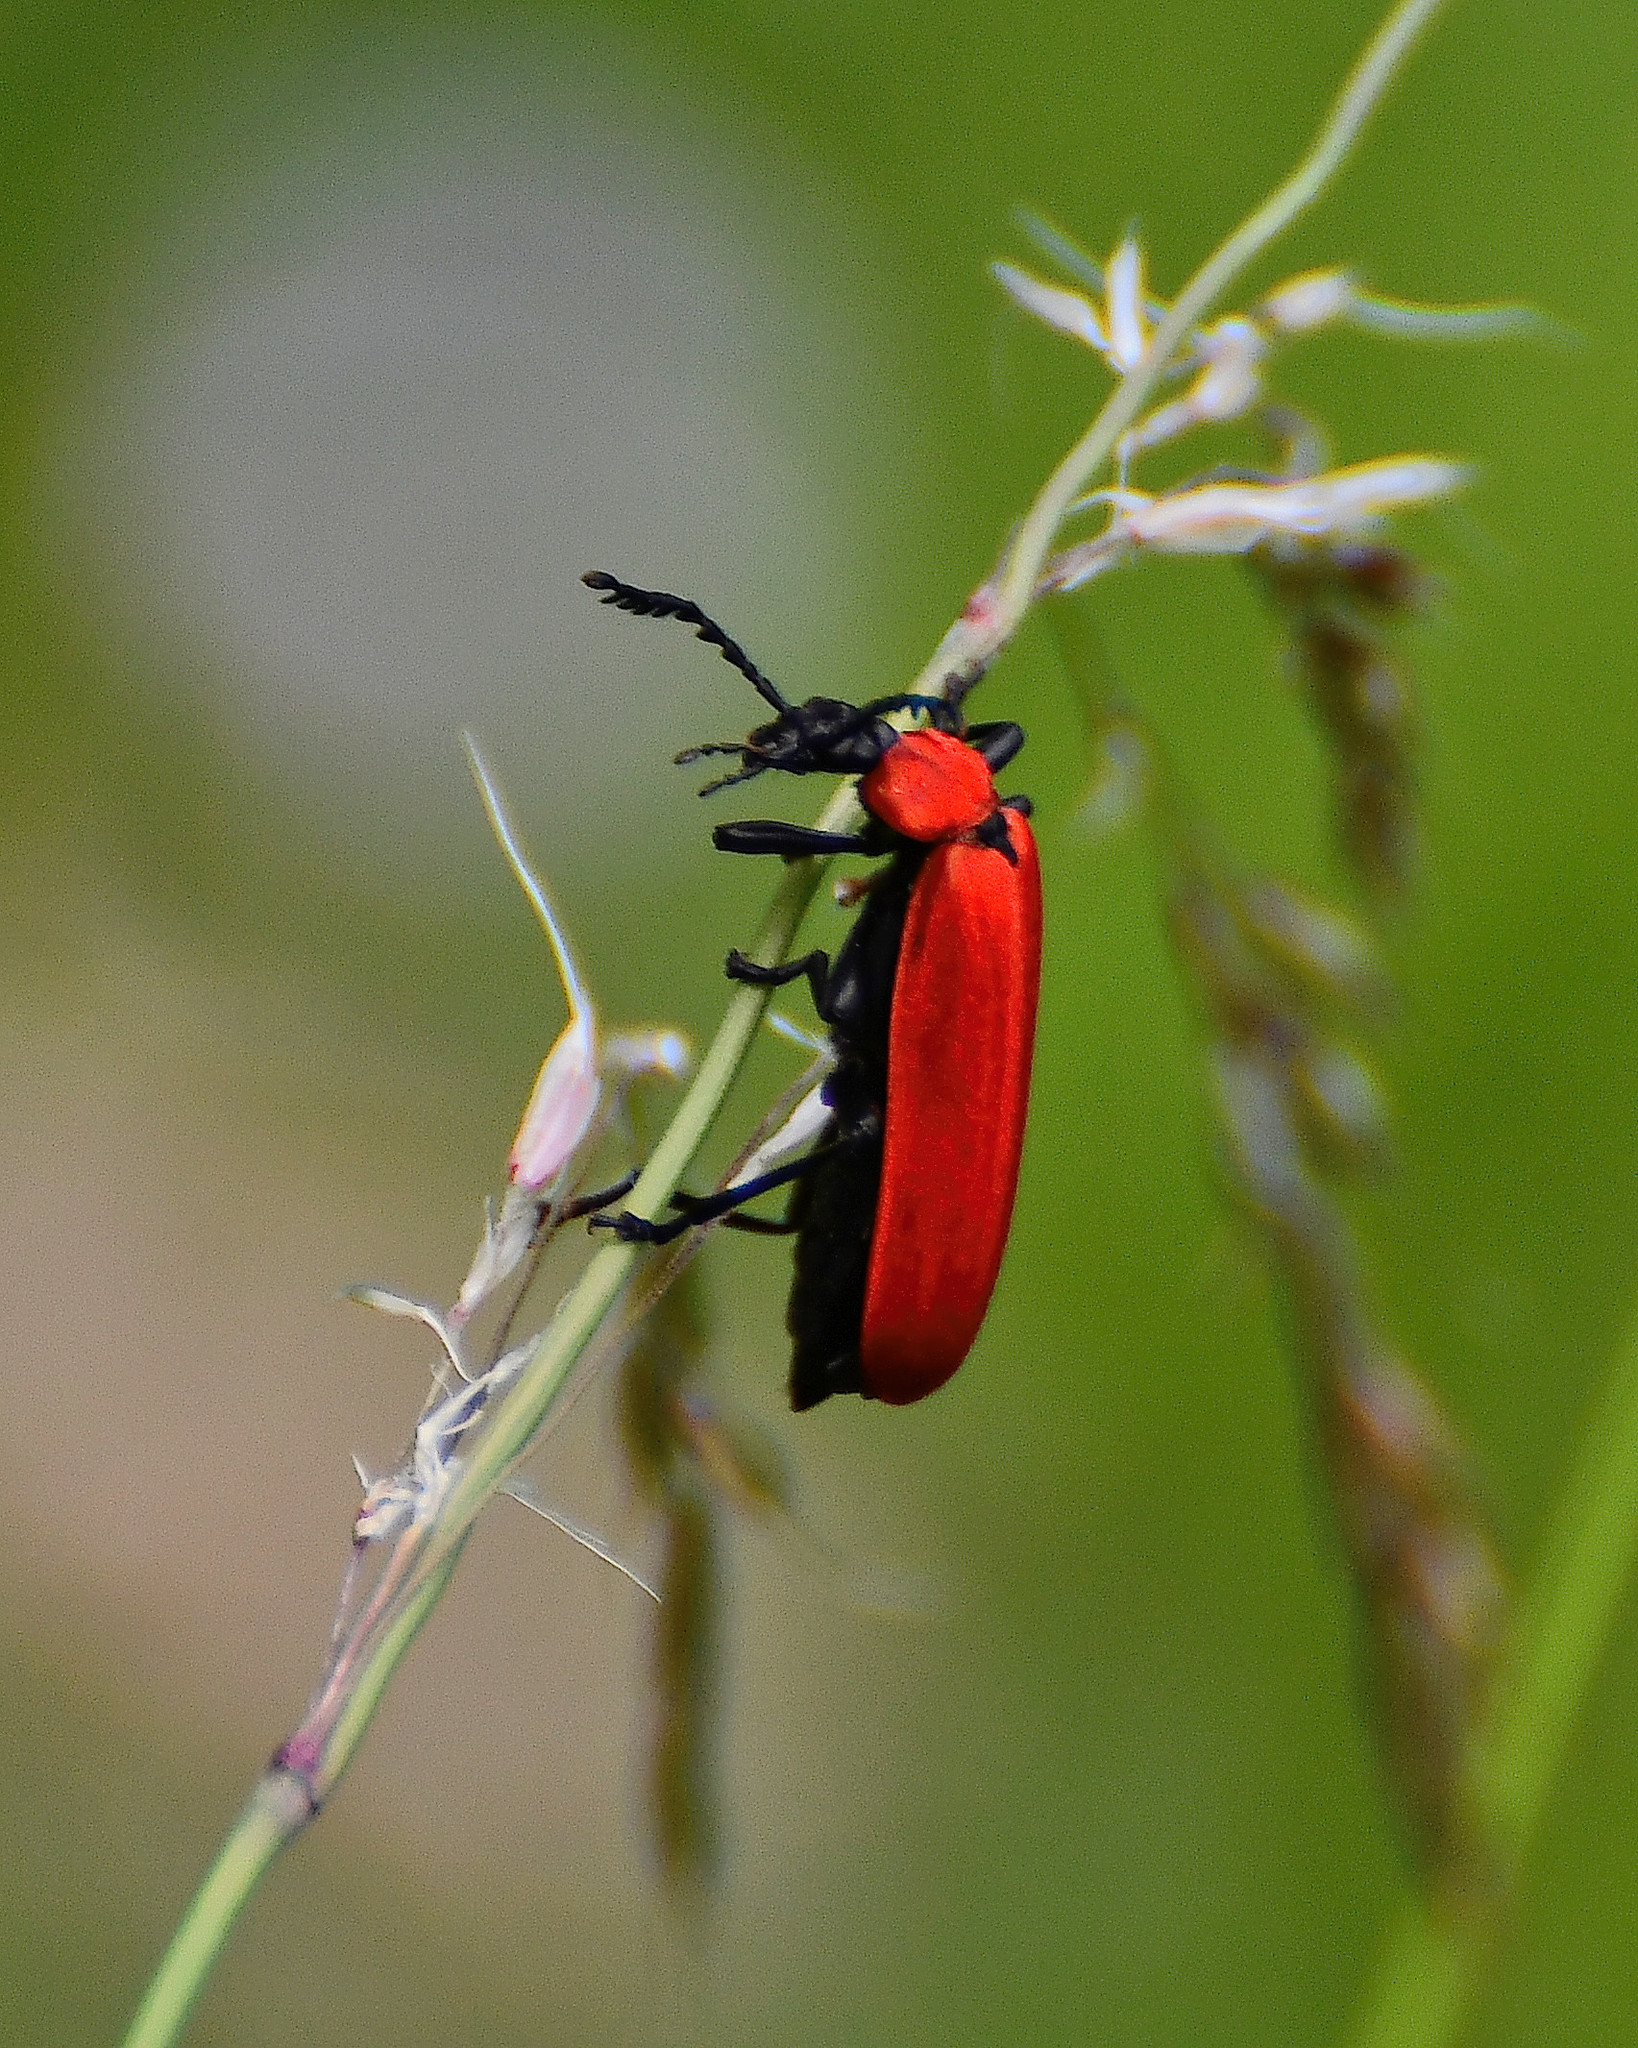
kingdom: Animalia
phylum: Arthropoda
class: Insecta
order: Coleoptera
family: Pyrochroidae
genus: Pyrochroa
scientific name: Pyrochroa coccinea
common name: Black-headed cardinal beetle
